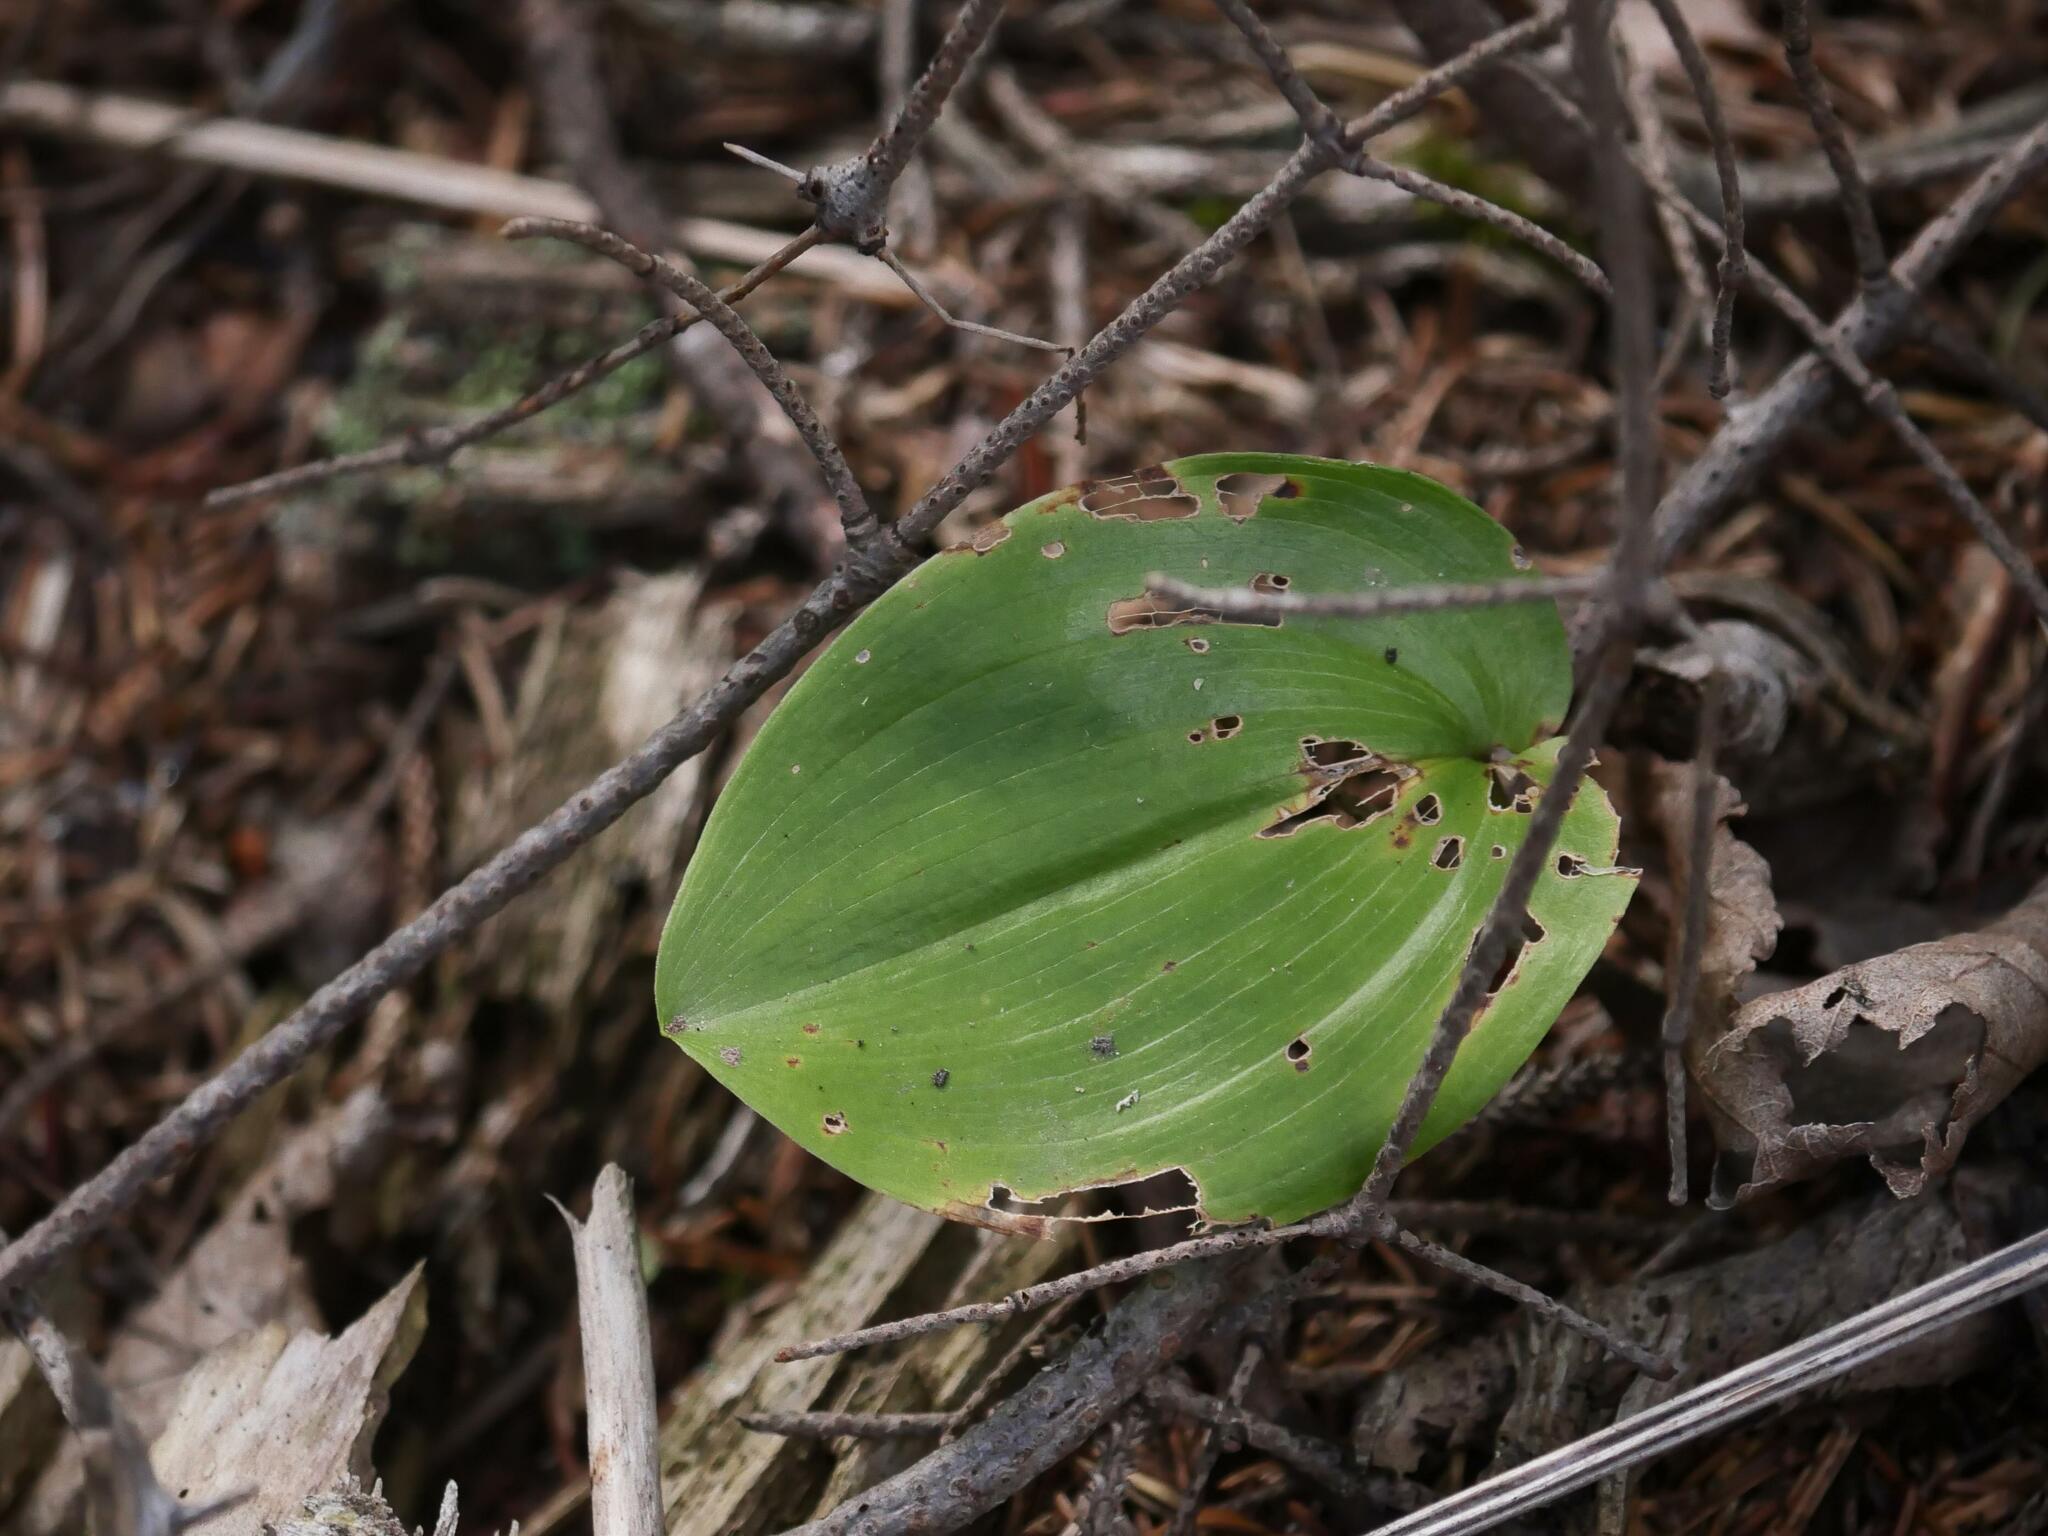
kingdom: Plantae
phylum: Tracheophyta
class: Liliopsida
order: Asparagales
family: Asparagaceae
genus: Maianthemum
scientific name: Maianthemum canadense
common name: False lily-of-the-valley
